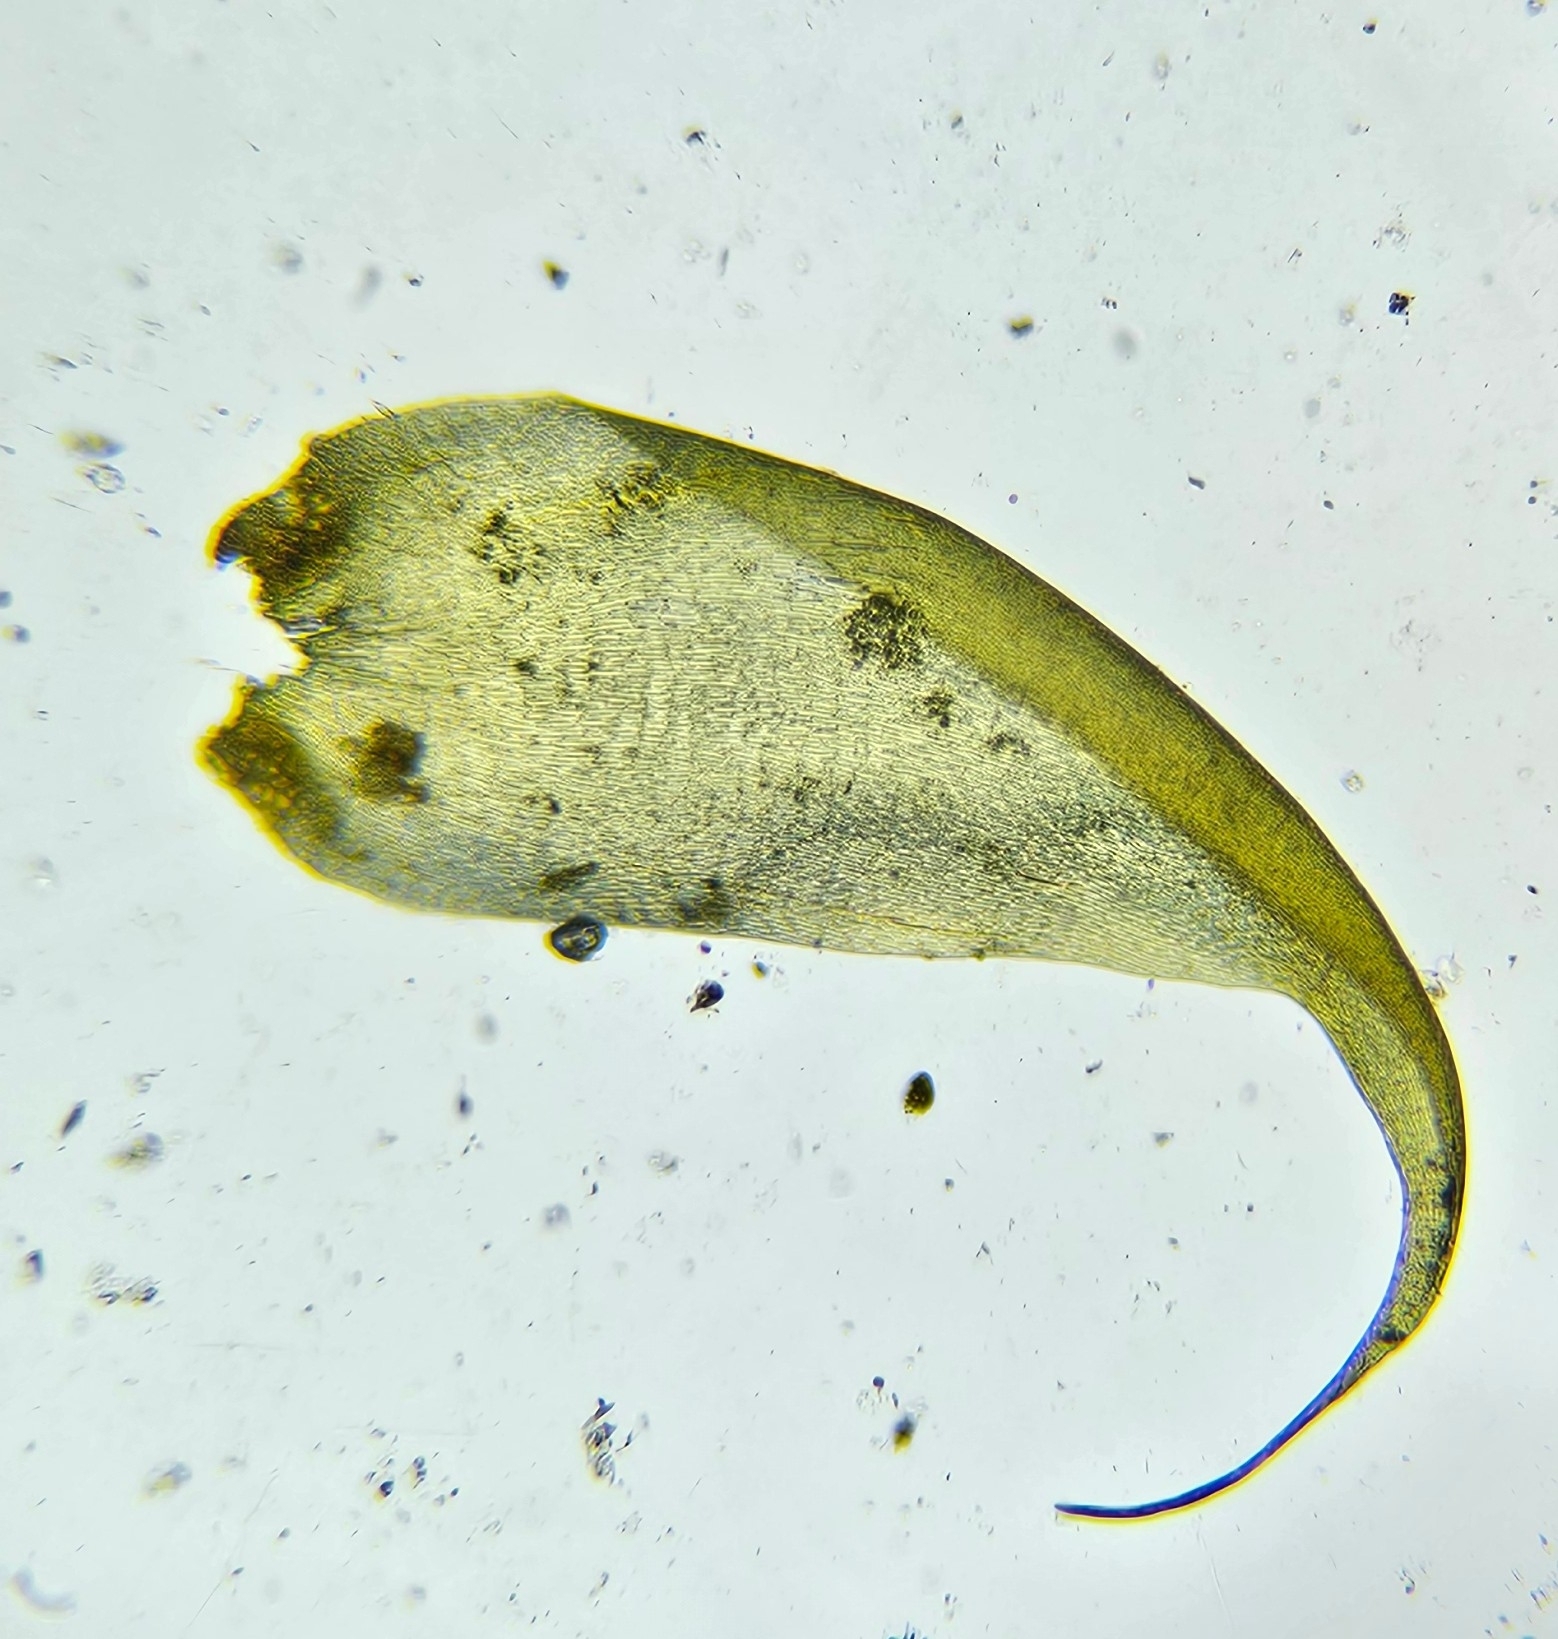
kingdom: Plantae
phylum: Bryophyta
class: Bryopsida
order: Hypnales
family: Hypnaceae
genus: Hypnum
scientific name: Hypnum cupressiforme
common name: Cypress-leaved plait-moss
